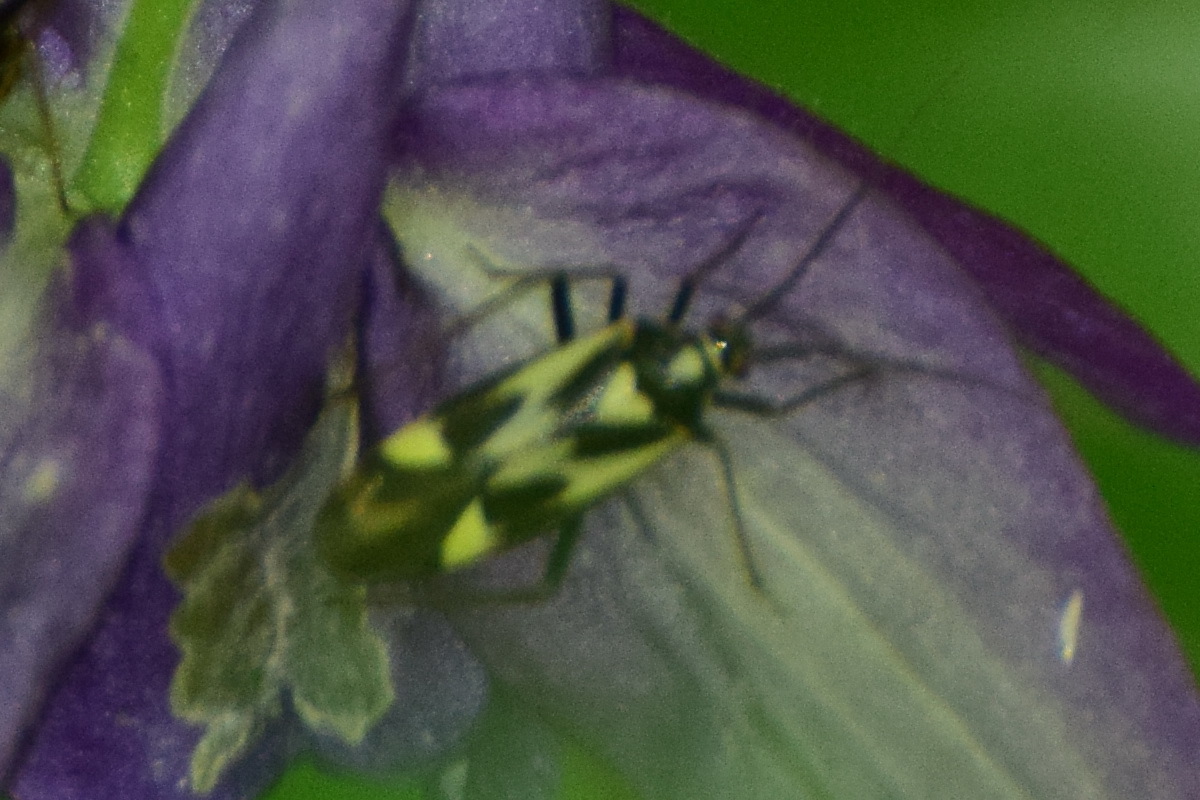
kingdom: Animalia
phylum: Arthropoda
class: Insecta
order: Hemiptera
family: Miridae
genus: Grypocoris
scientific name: Grypocoris sexguttatus
